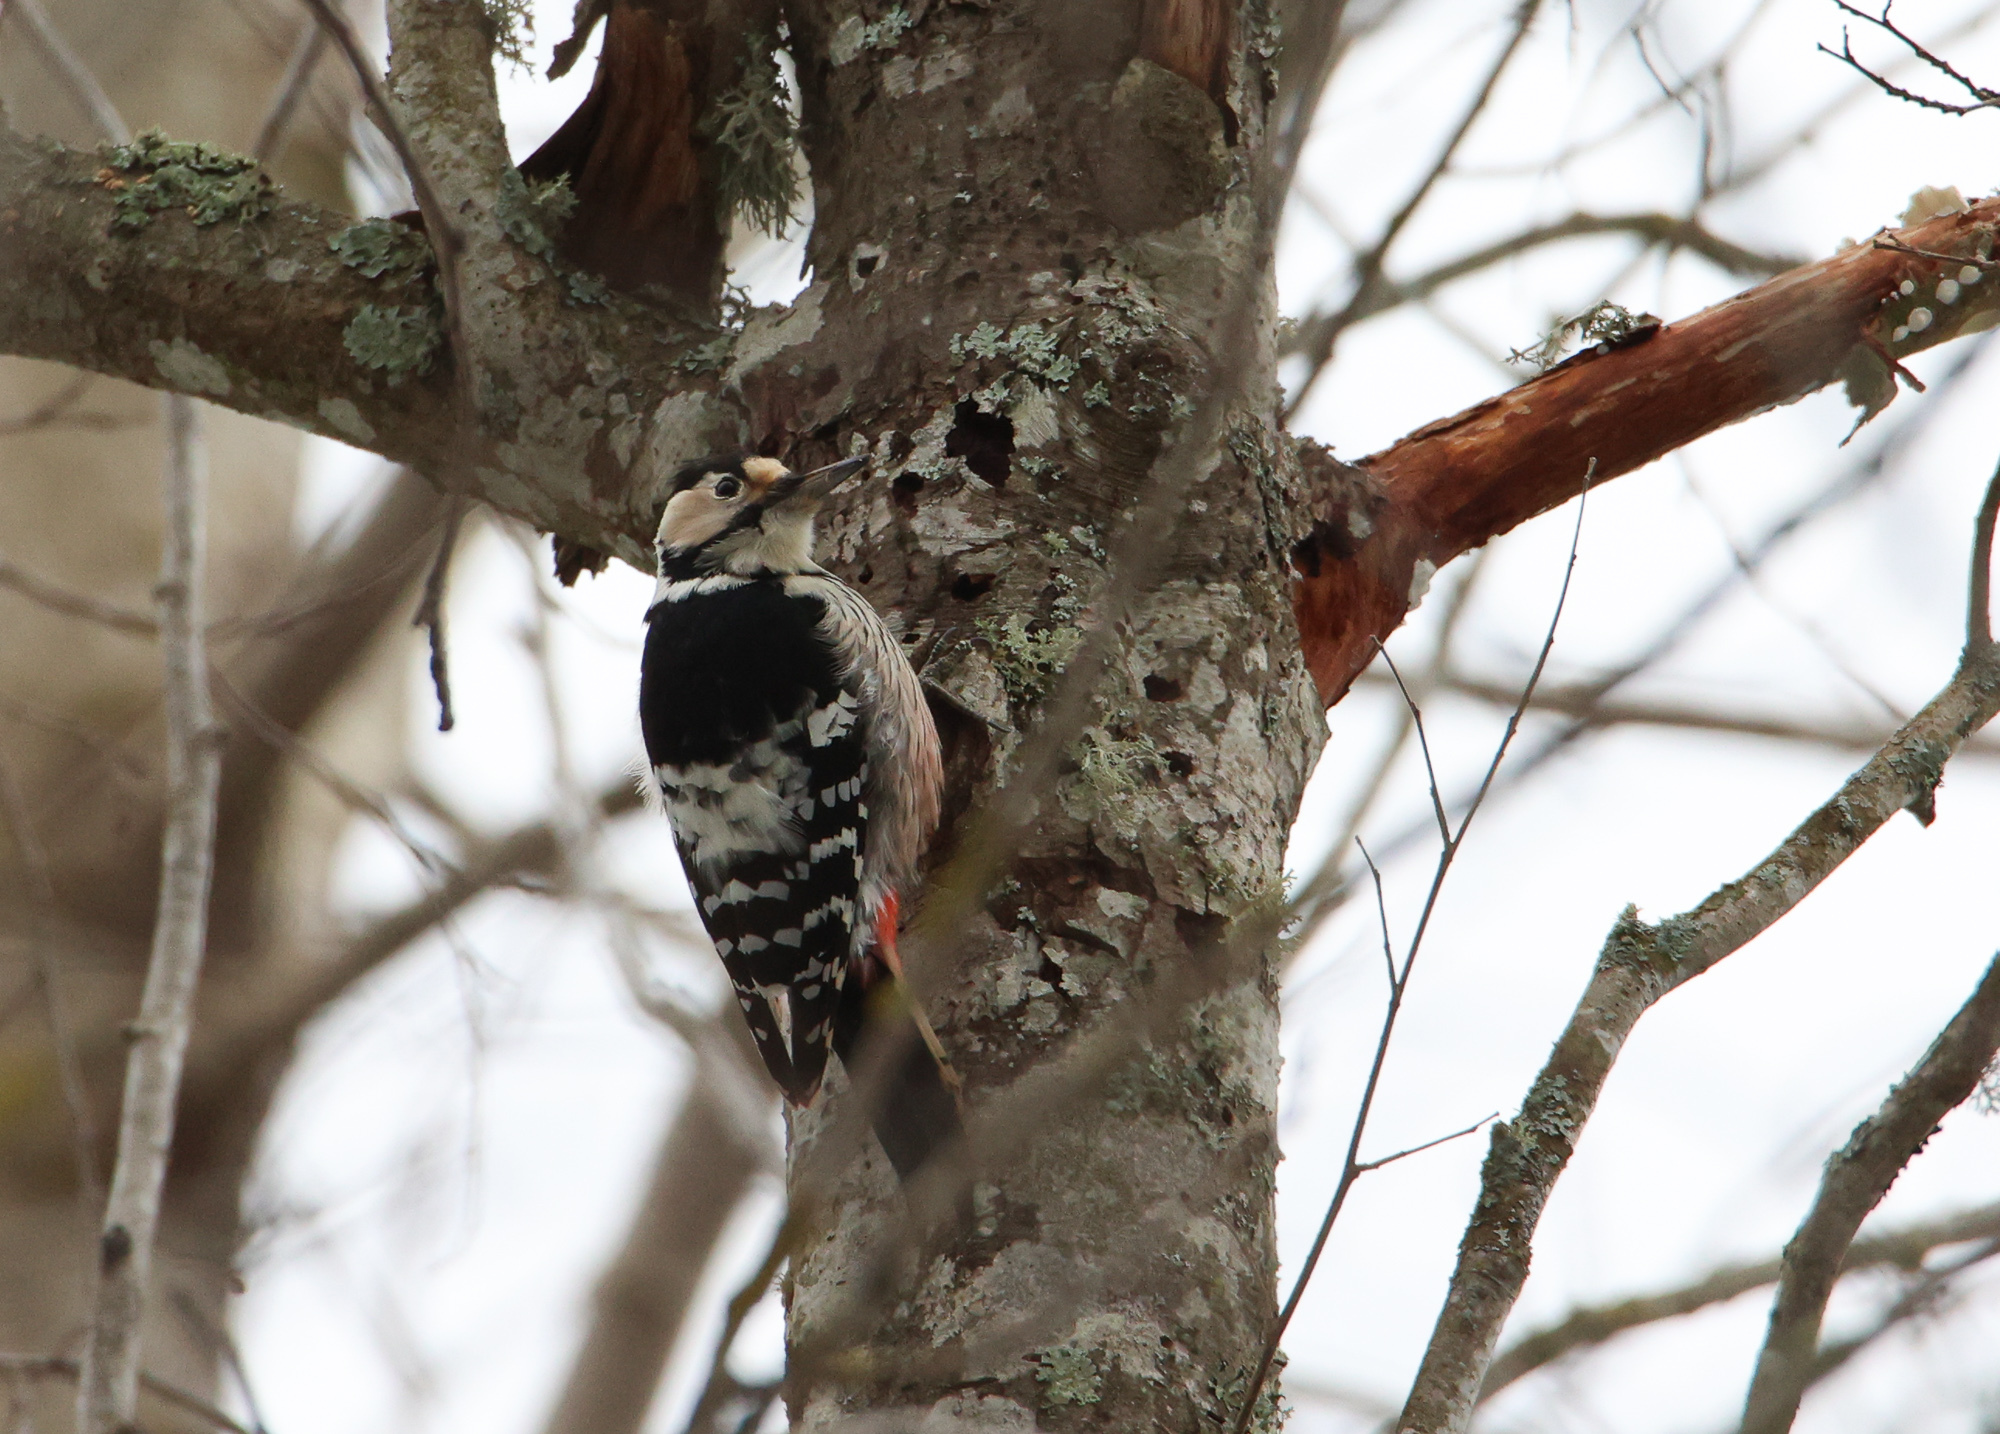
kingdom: Animalia
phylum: Chordata
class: Aves
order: Piciformes
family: Picidae
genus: Dendrocopos
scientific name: Dendrocopos leucotos
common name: White-backed woodpecker
